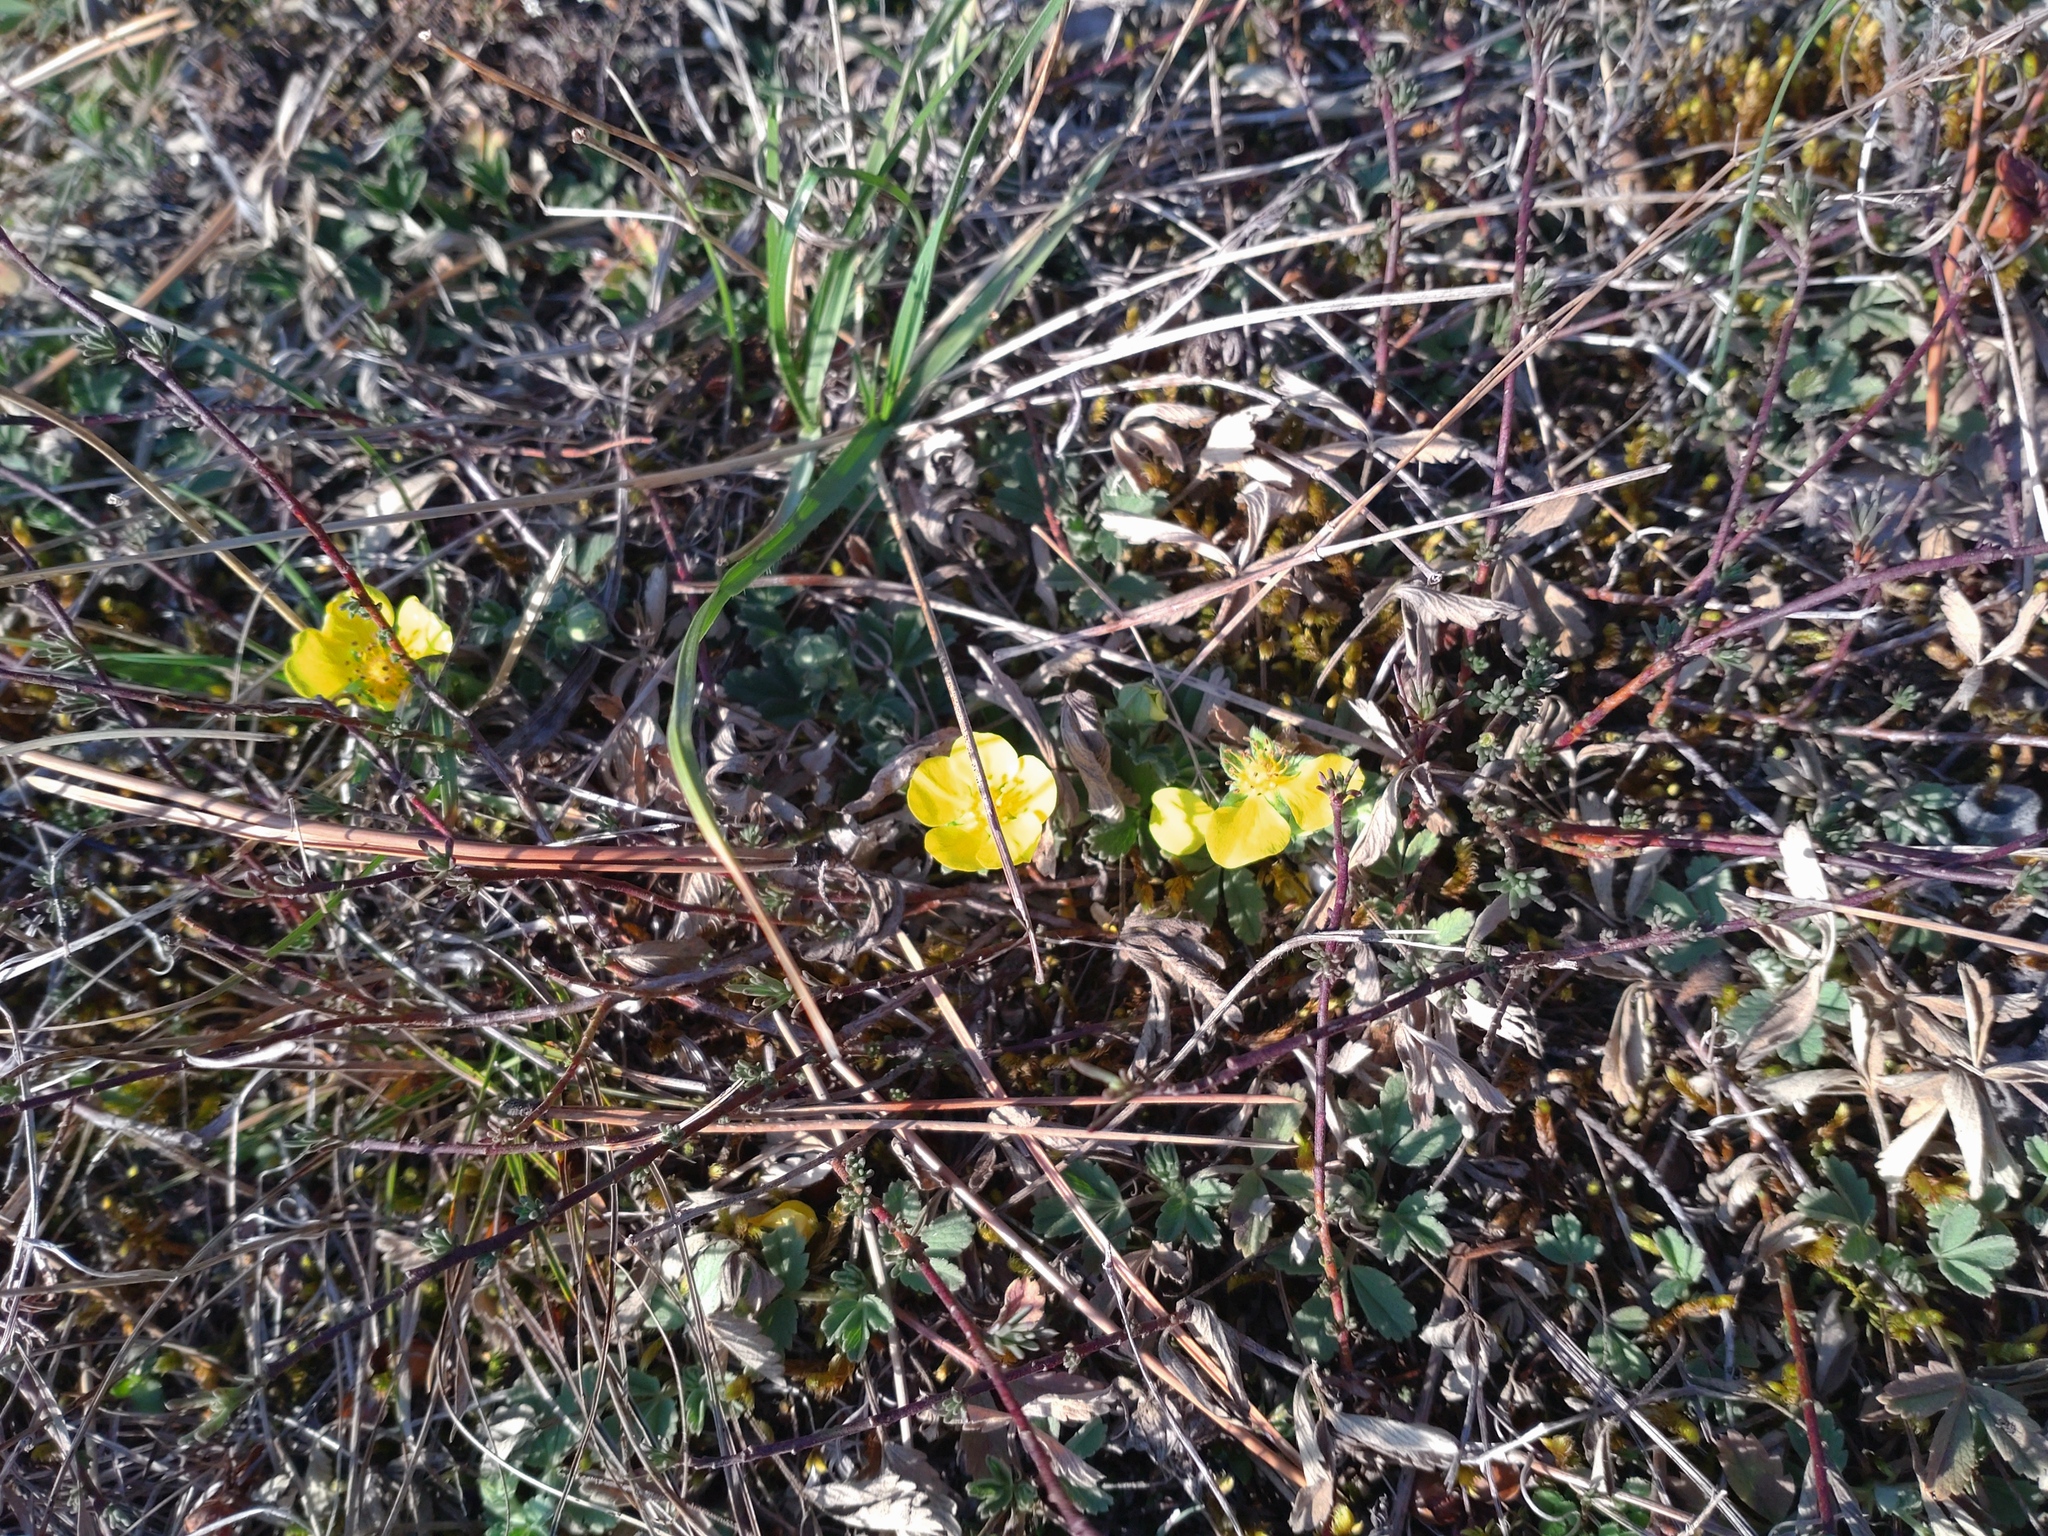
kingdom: Plantae
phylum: Tracheophyta
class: Magnoliopsida
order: Rosales
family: Rosaceae
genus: Potentilla
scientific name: Potentilla incana
